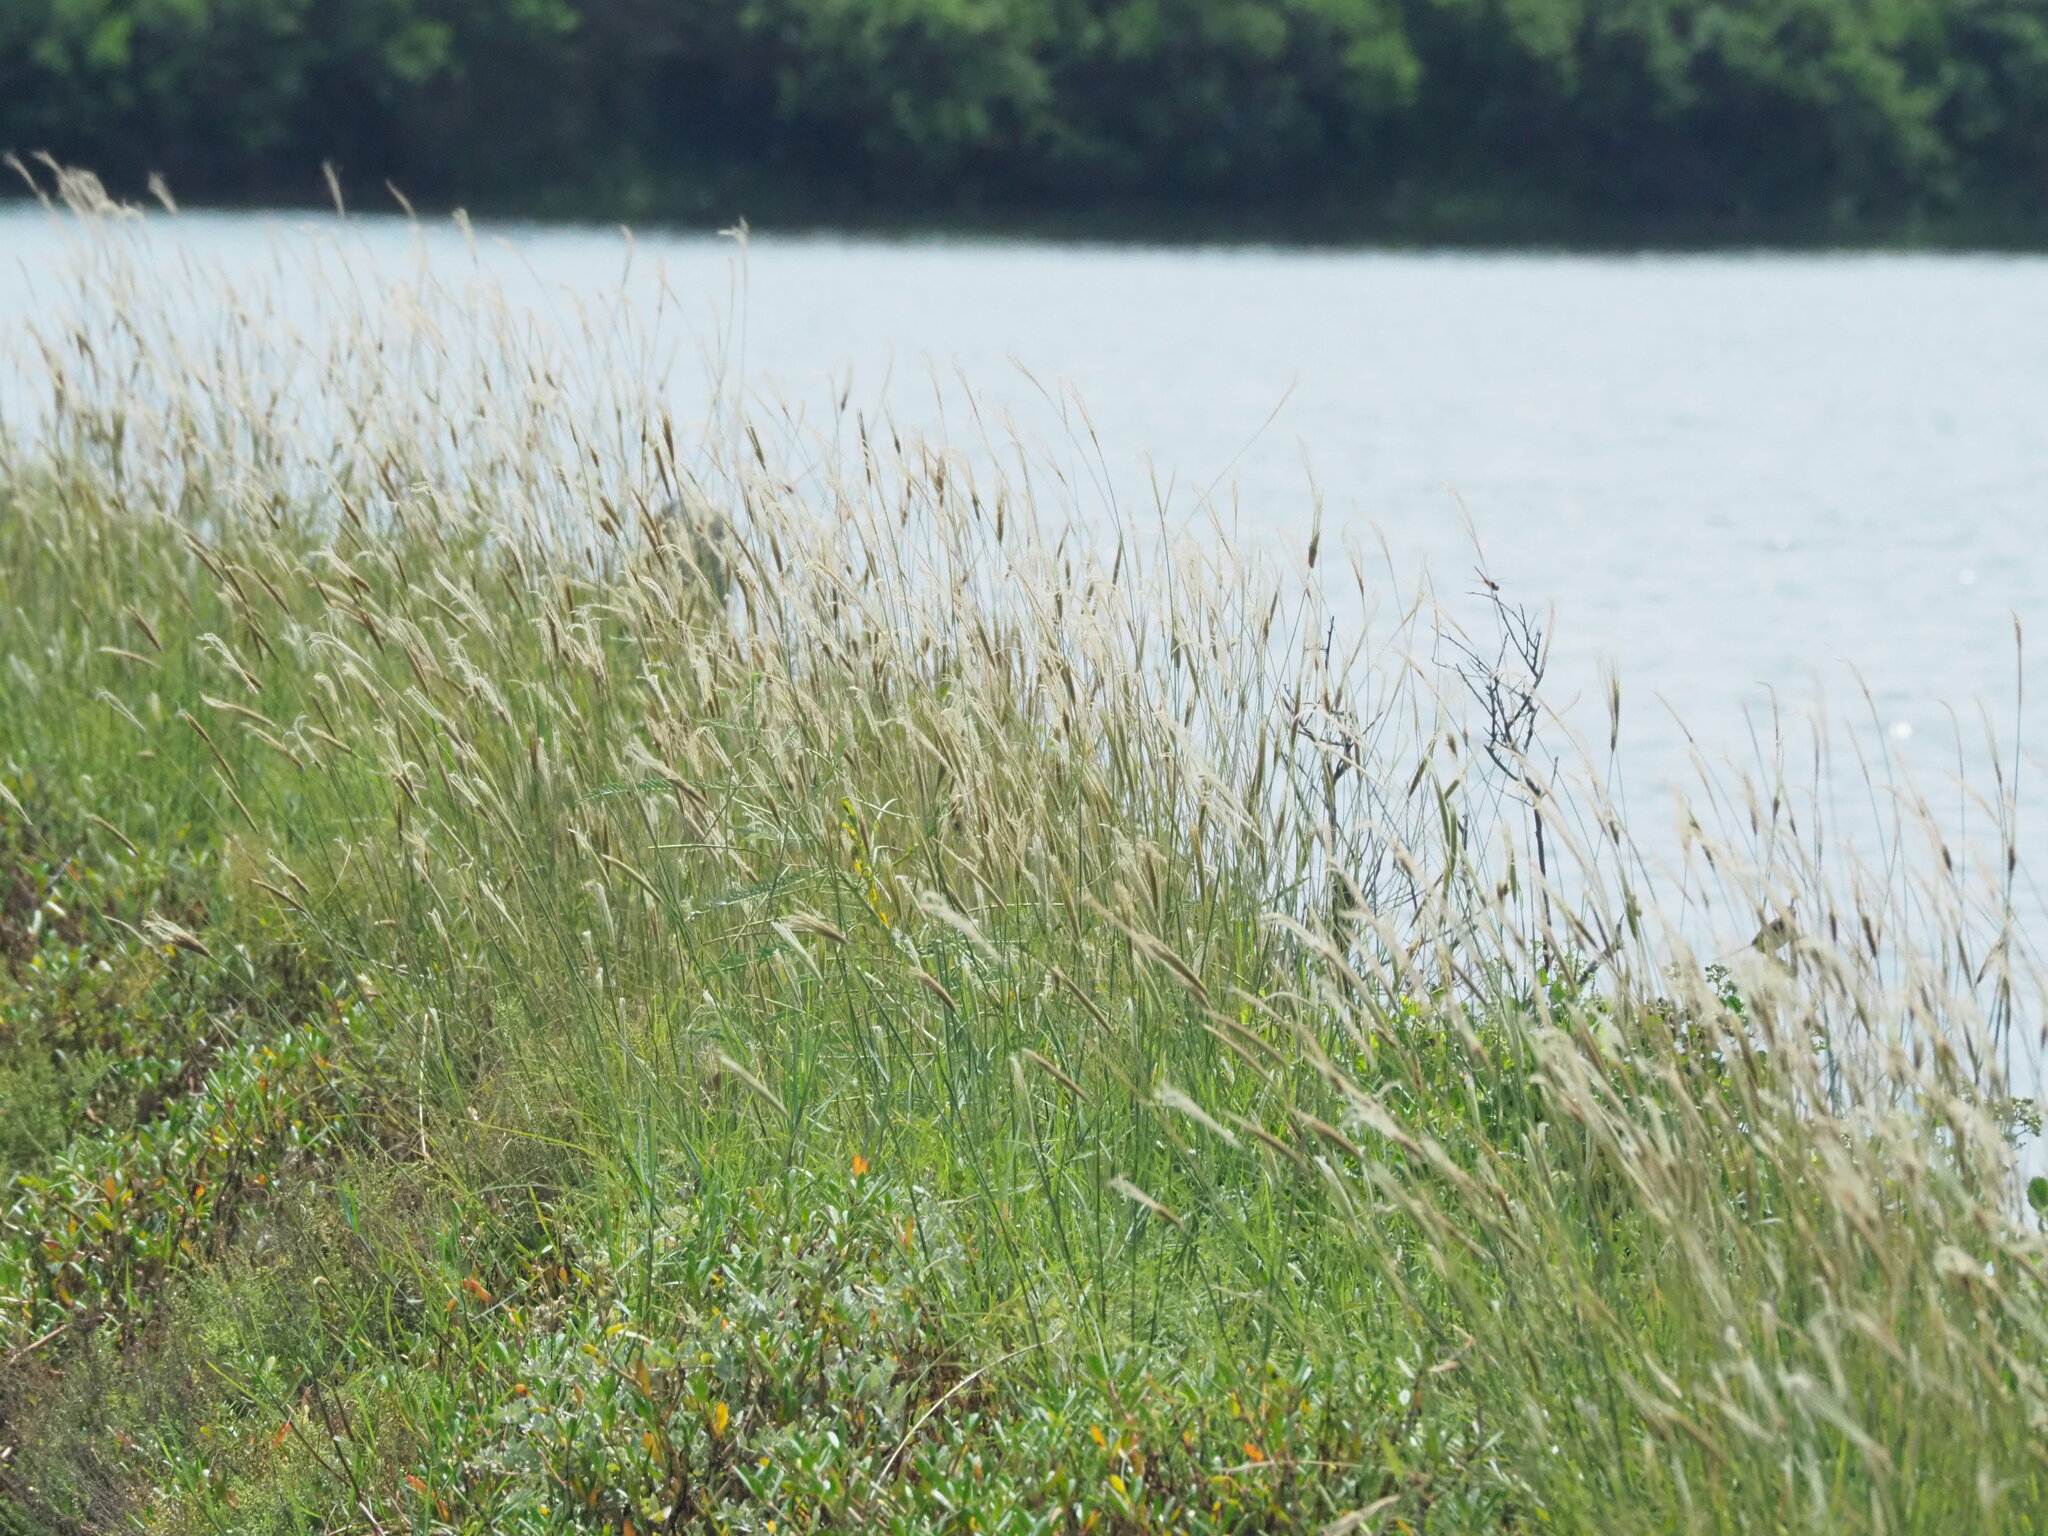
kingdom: Plantae
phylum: Tracheophyta
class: Liliopsida
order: Poales
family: Poaceae
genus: Chloris
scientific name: Chloris formosana
